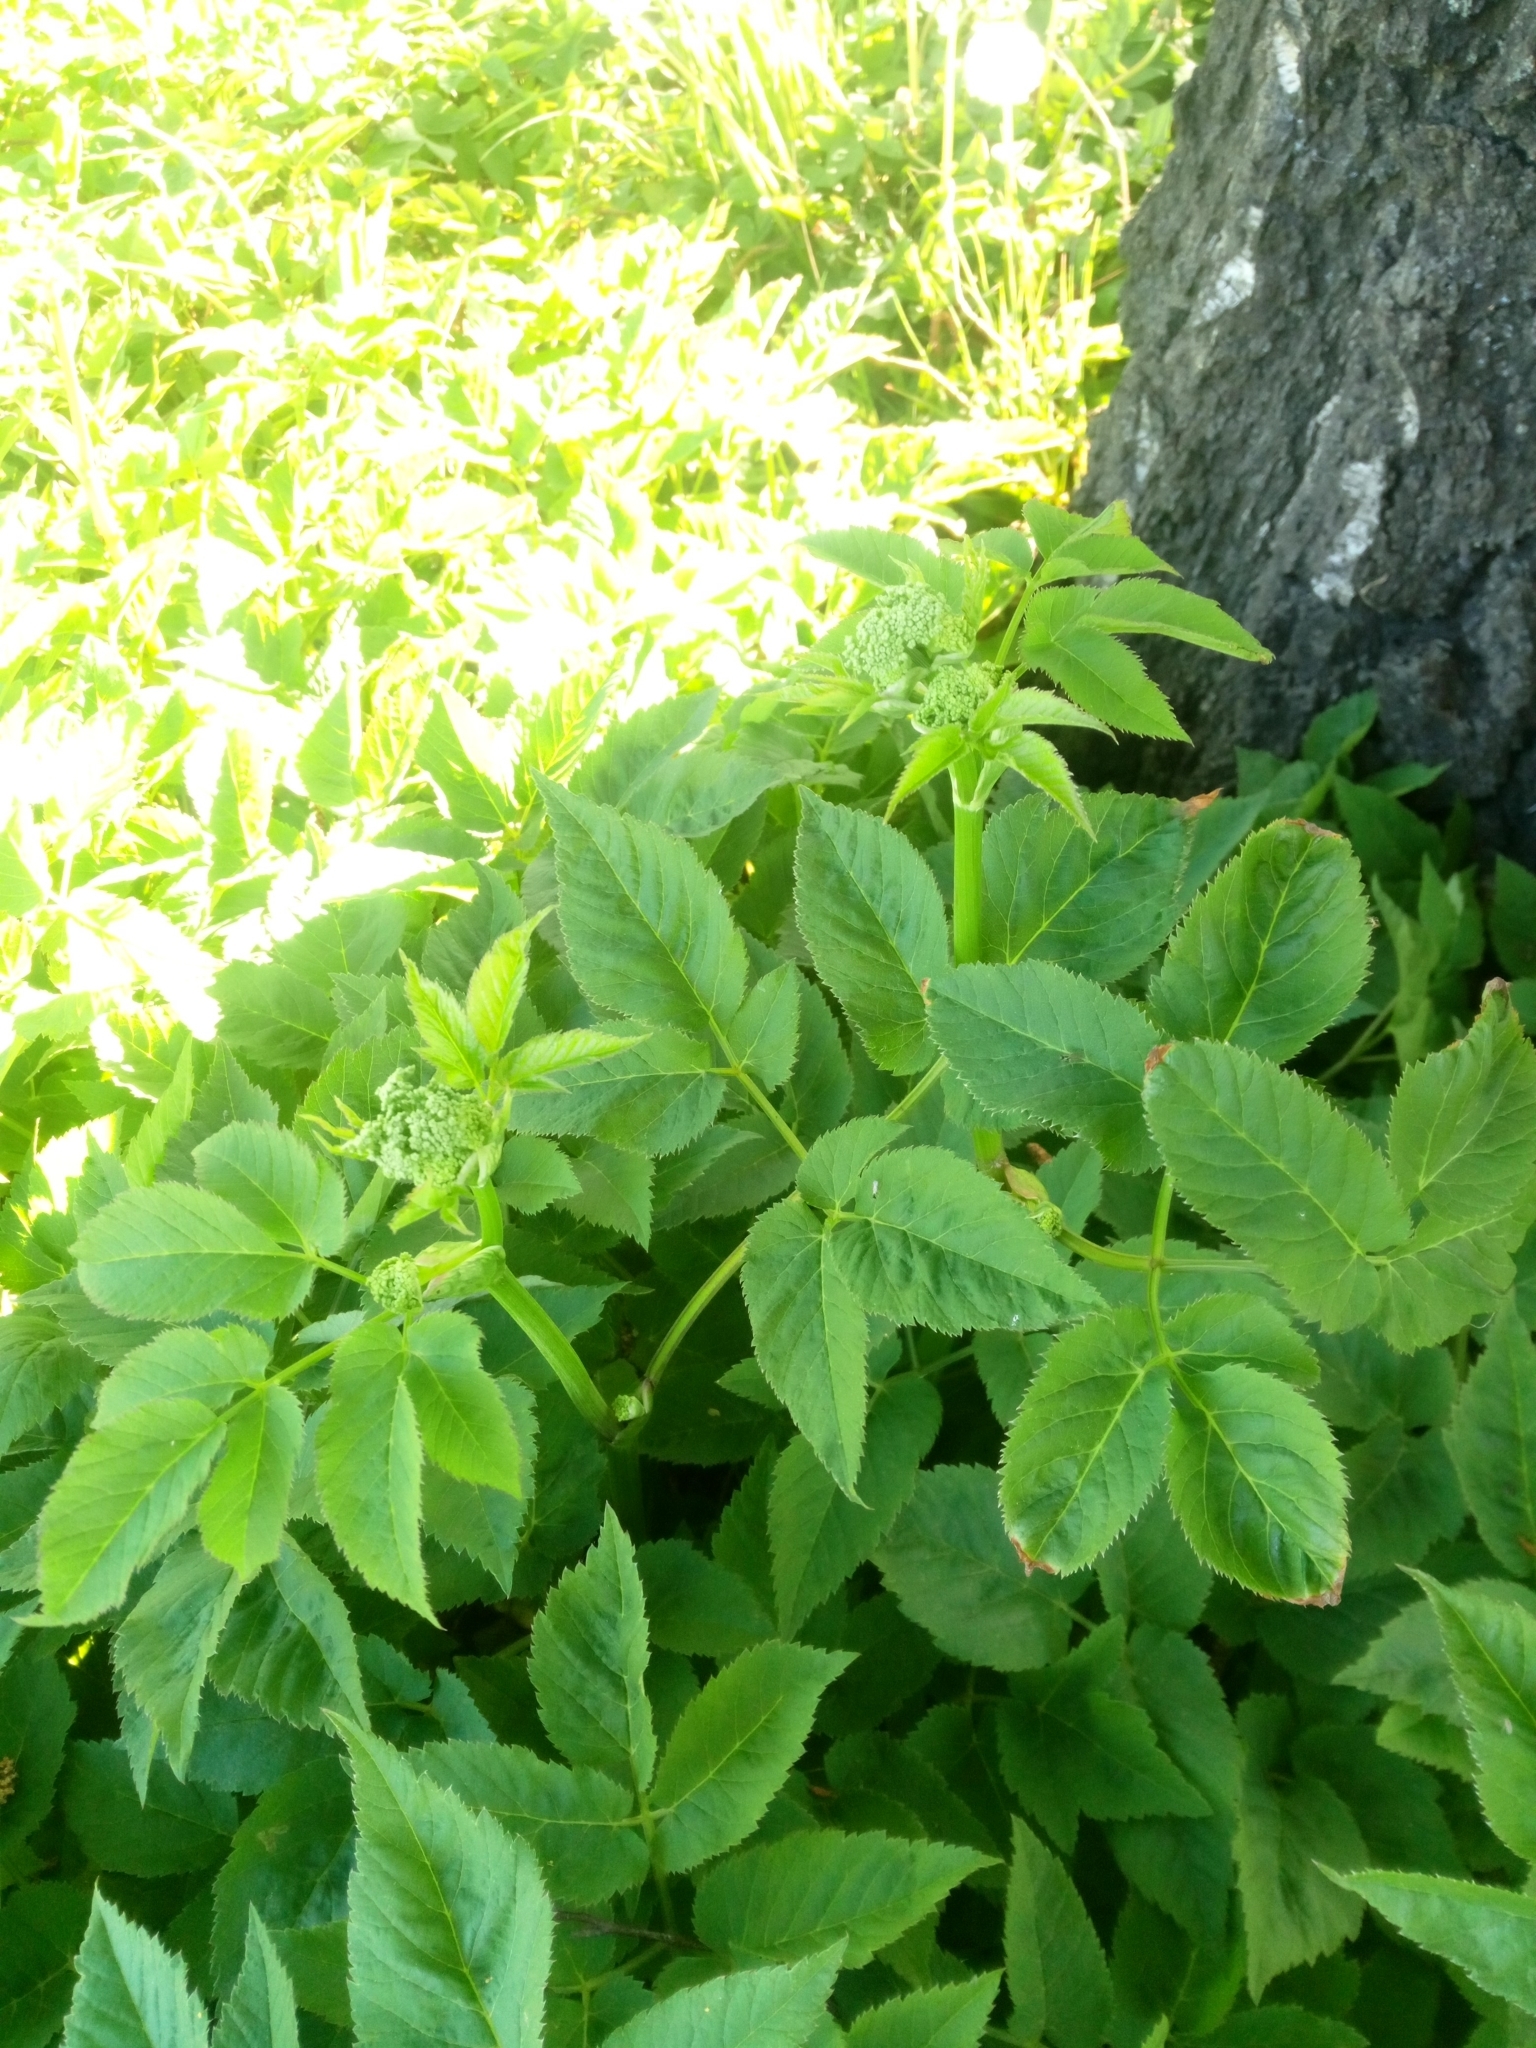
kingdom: Plantae
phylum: Tracheophyta
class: Magnoliopsida
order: Apiales
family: Apiaceae
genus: Aegopodium
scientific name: Aegopodium podagraria
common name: Ground-elder
